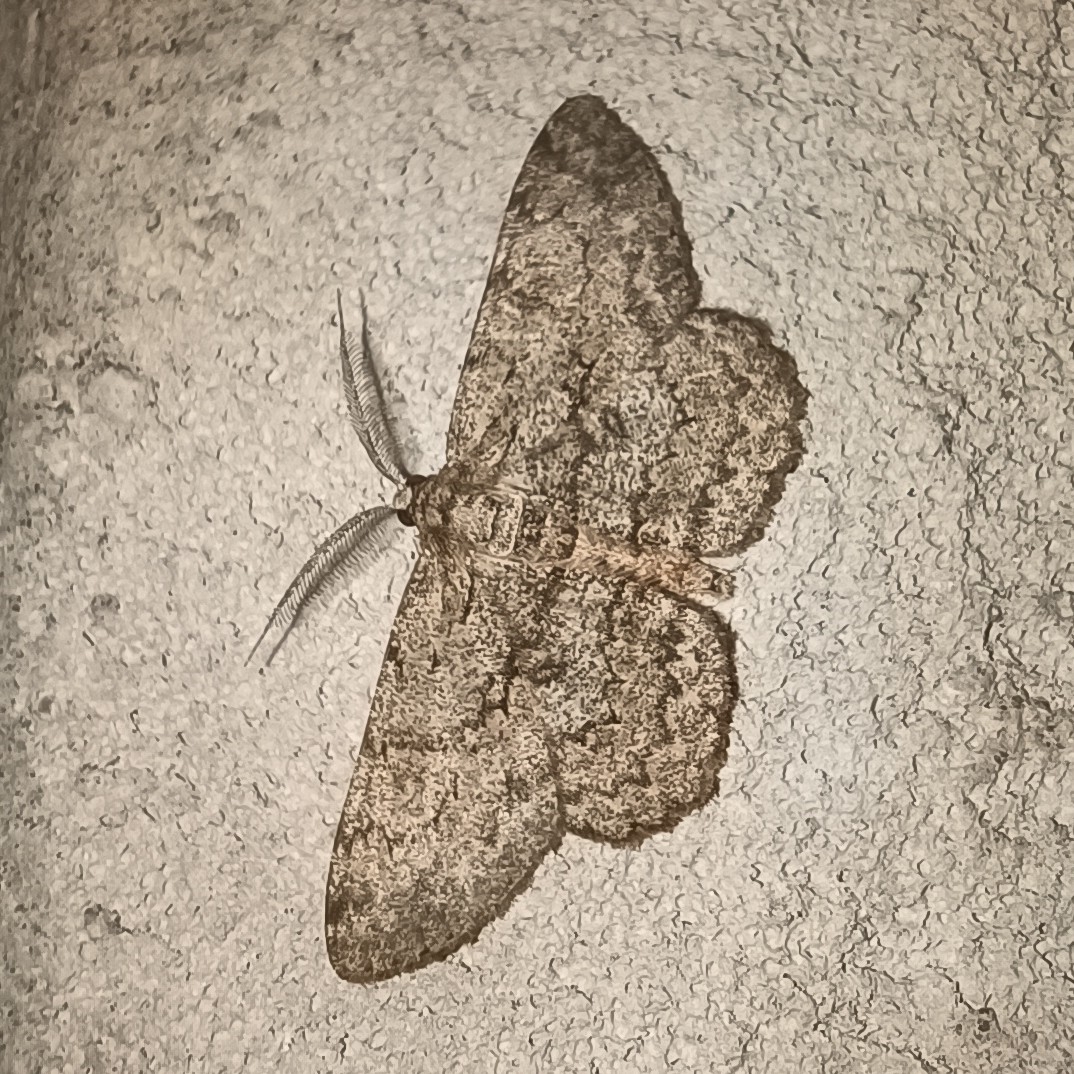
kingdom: Animalia
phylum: Arthropoda
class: Insecta
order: Lepidoptera
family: Geometridae
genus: Hypomecis
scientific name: Hypomecis punctinalis
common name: Pale oak beauty
